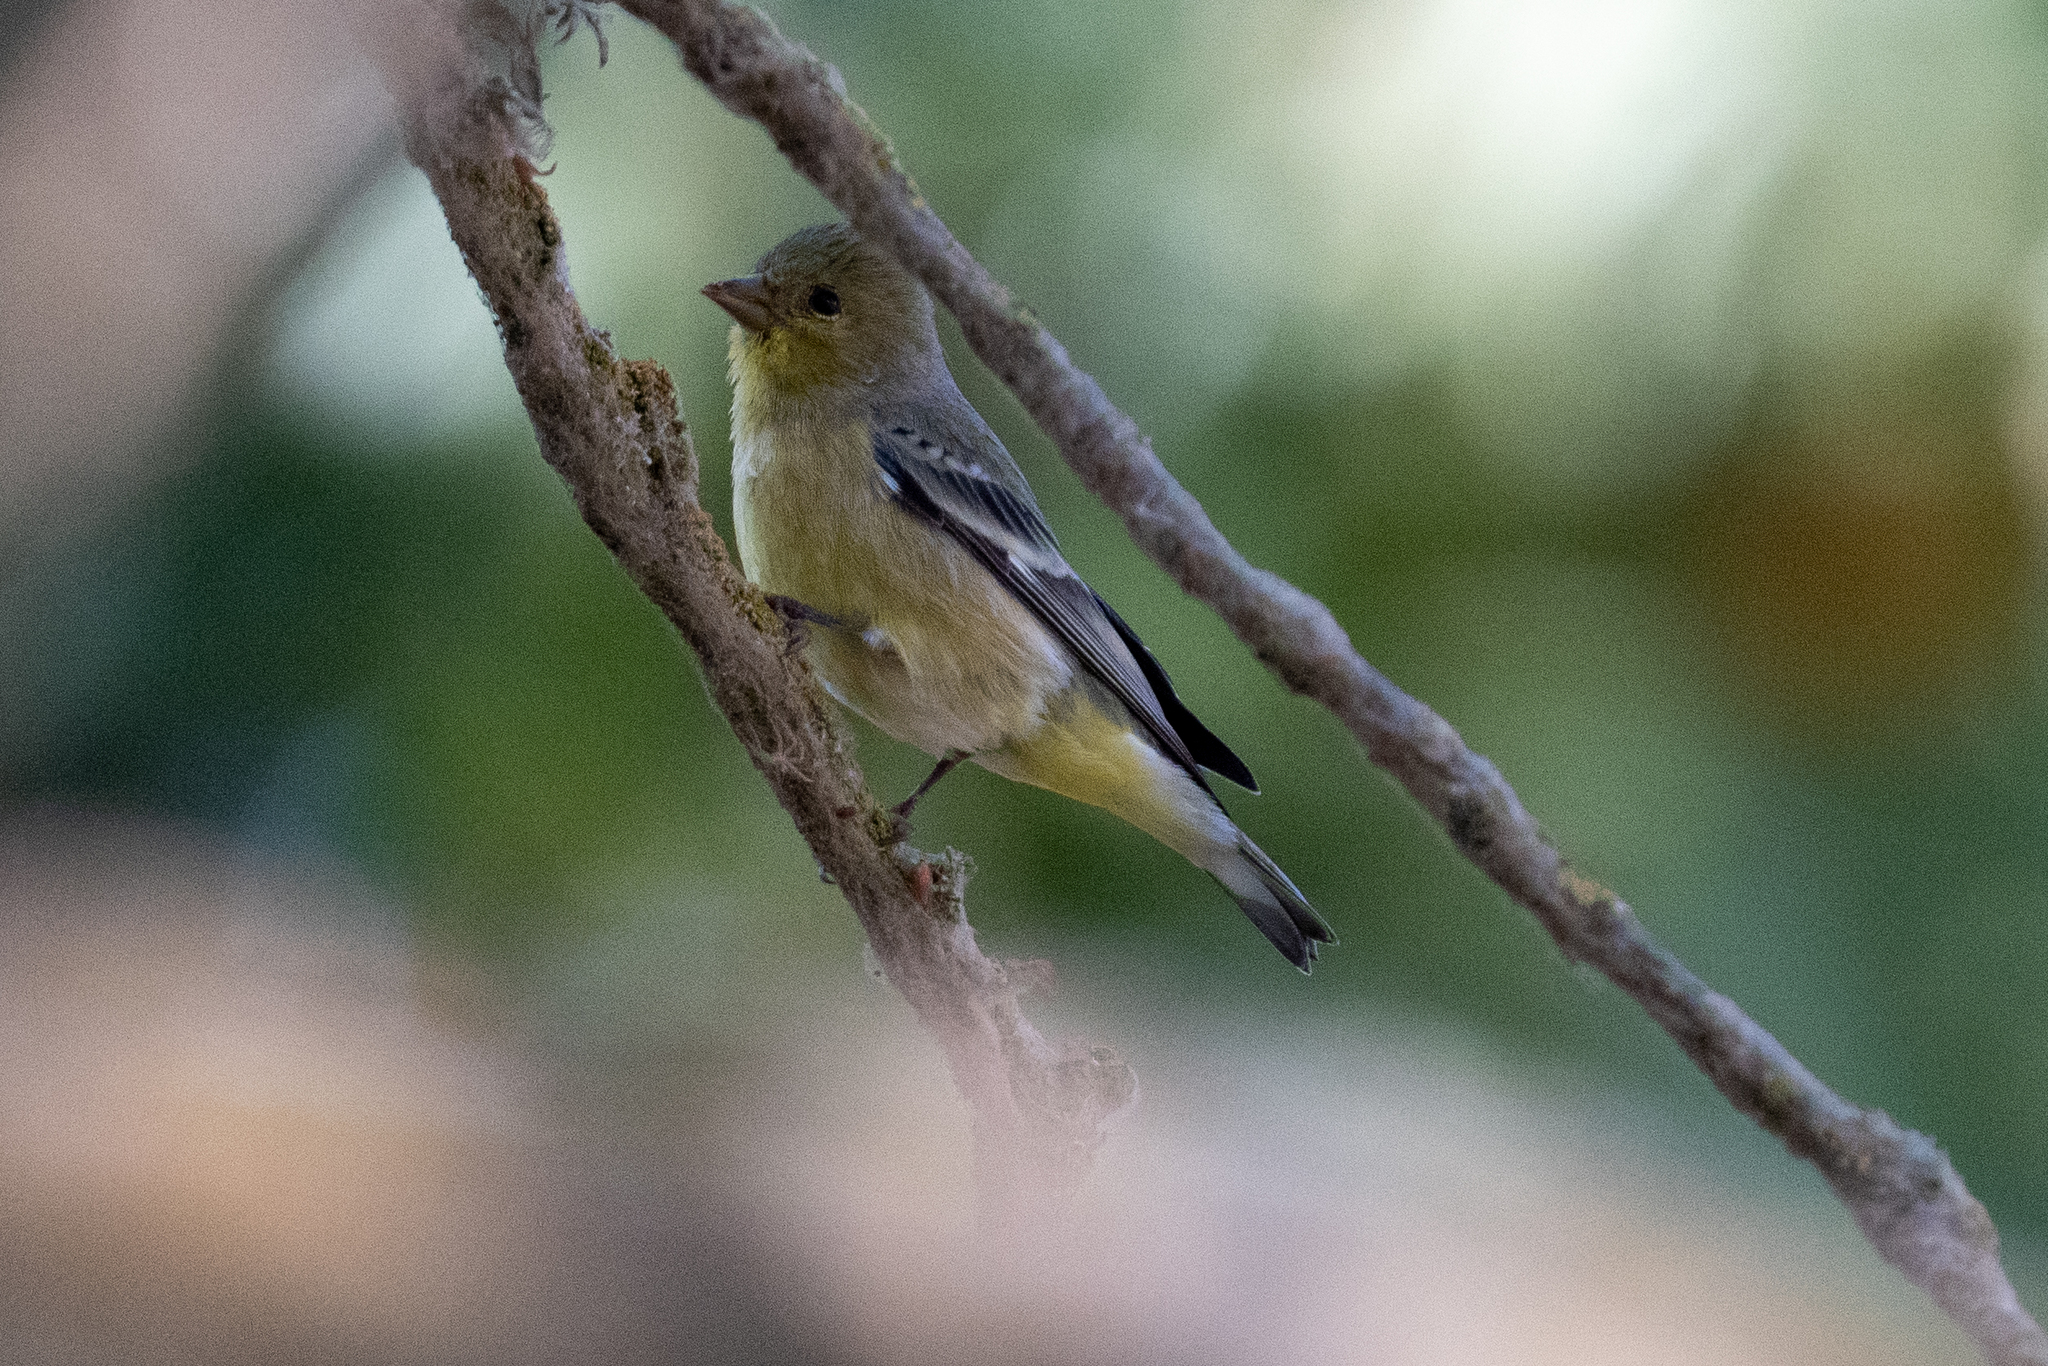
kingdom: Animalia
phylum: Chordata
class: Aves
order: Passeriformes
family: Fringillidae
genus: Spinus
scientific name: Spinus psaltria
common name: Lesser goldfinch
